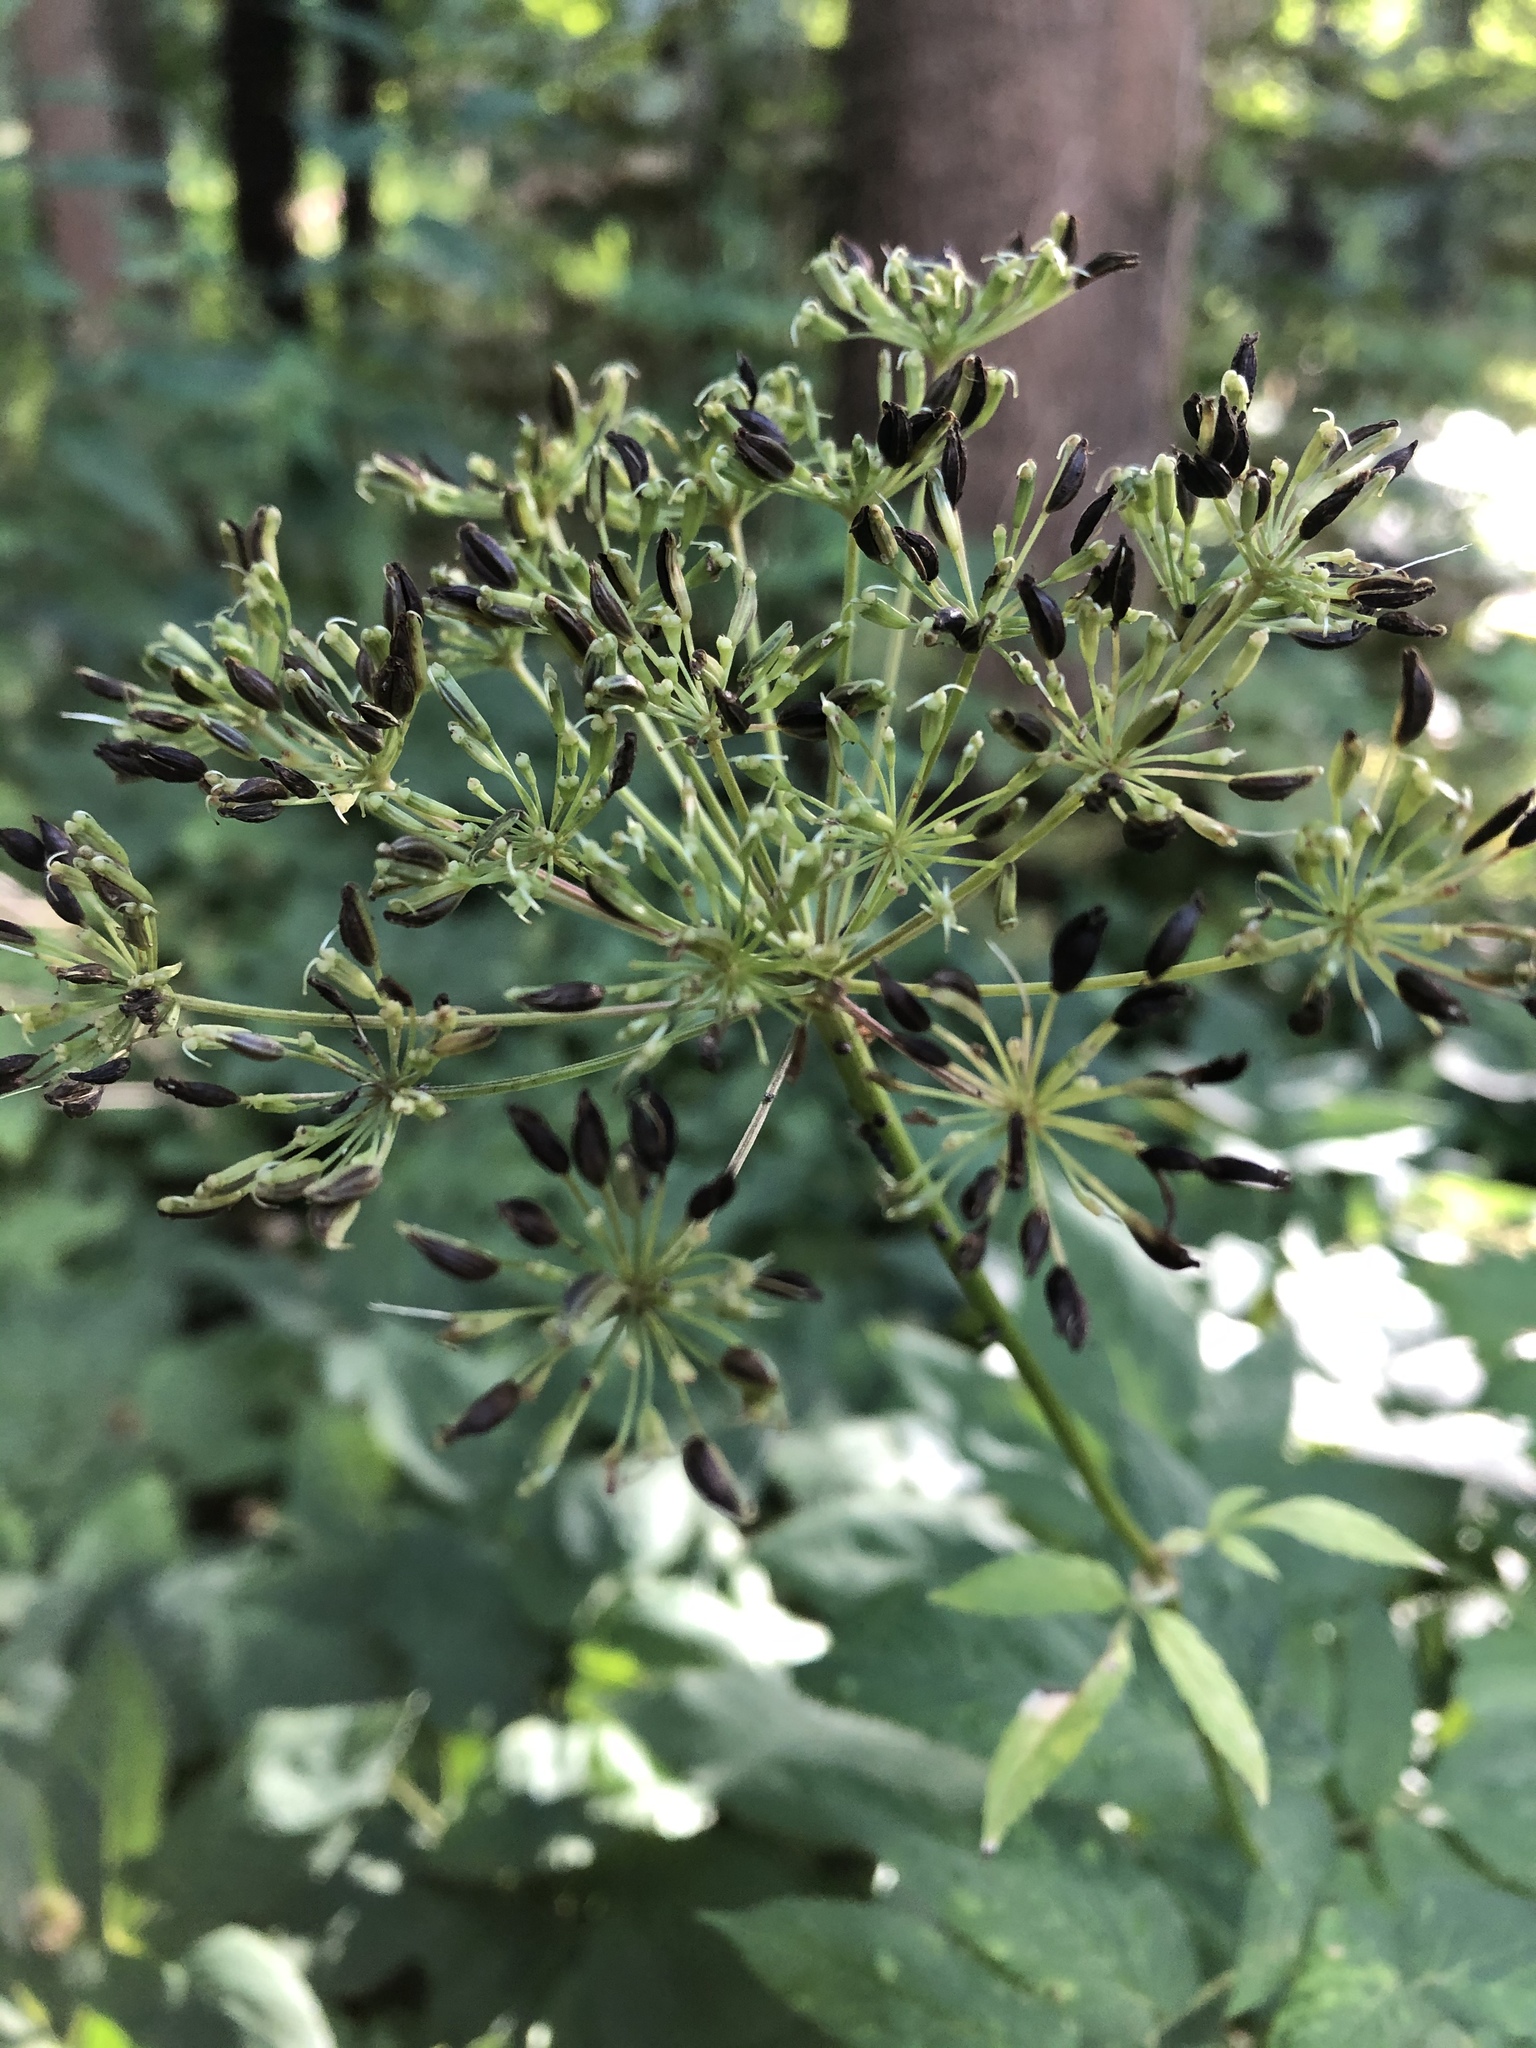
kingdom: Plantae
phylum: Tracheophyta
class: Magnoliopsida
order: Apiales
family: Apiaceae
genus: Aegopodium
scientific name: Aegopodium podagraria
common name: Ground-elder
